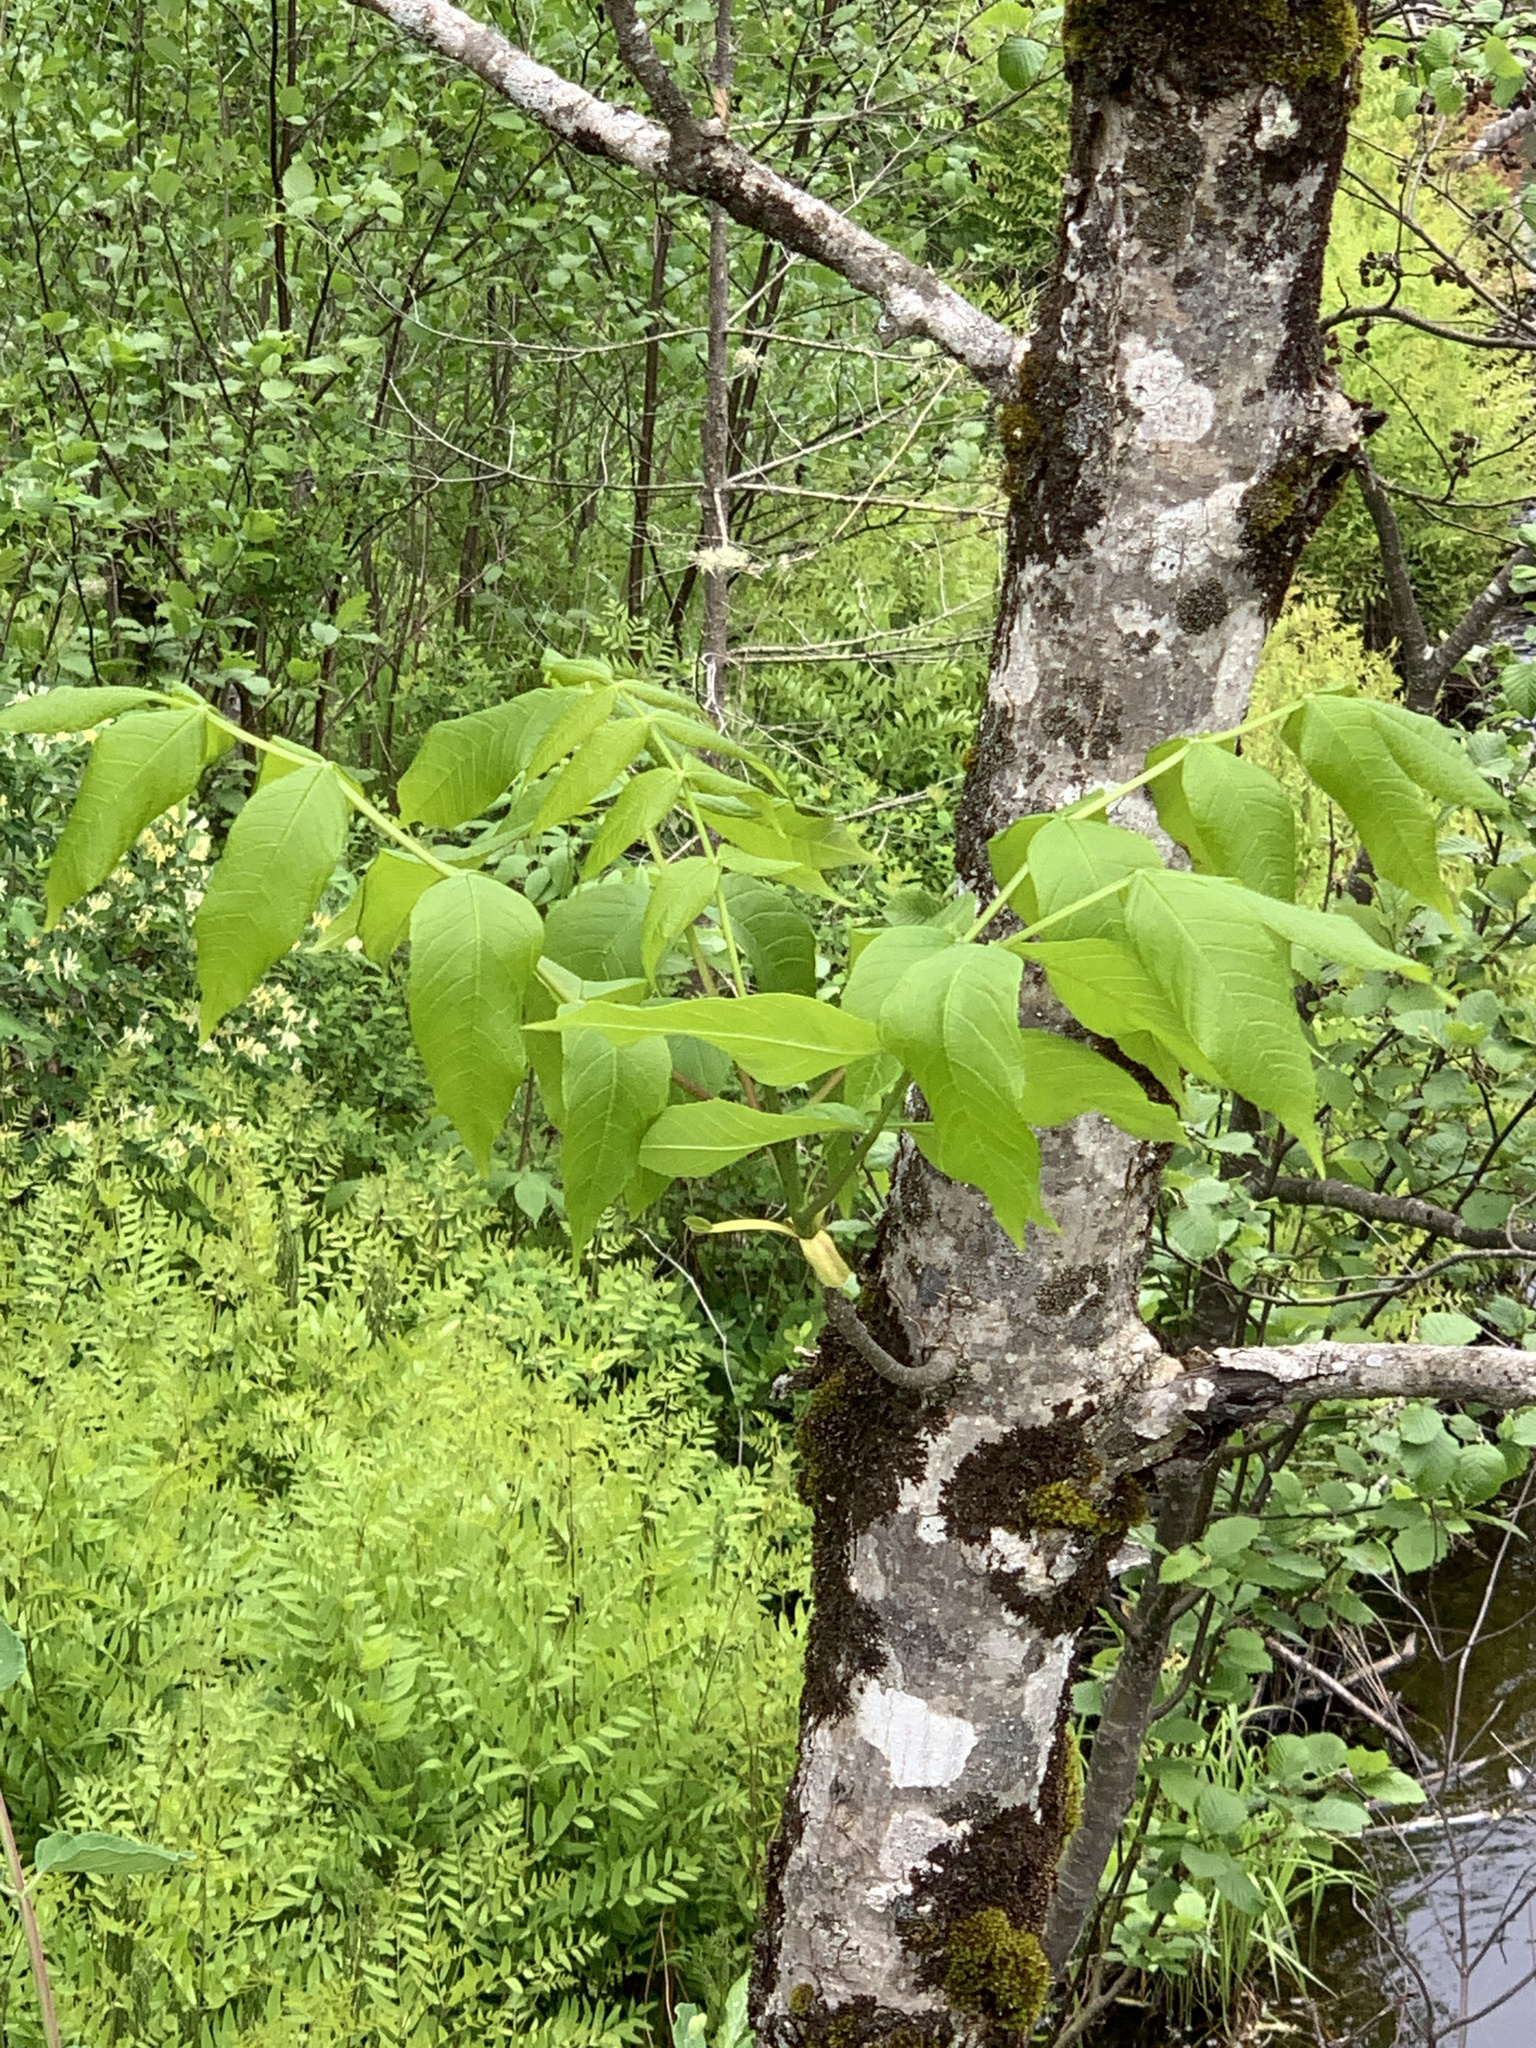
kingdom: Plantae
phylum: Tracheophyta
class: Magnoliopsida
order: Lamiales
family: Oleaceae
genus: Fraxinus
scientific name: Fraxinus nigra
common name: Black ash
